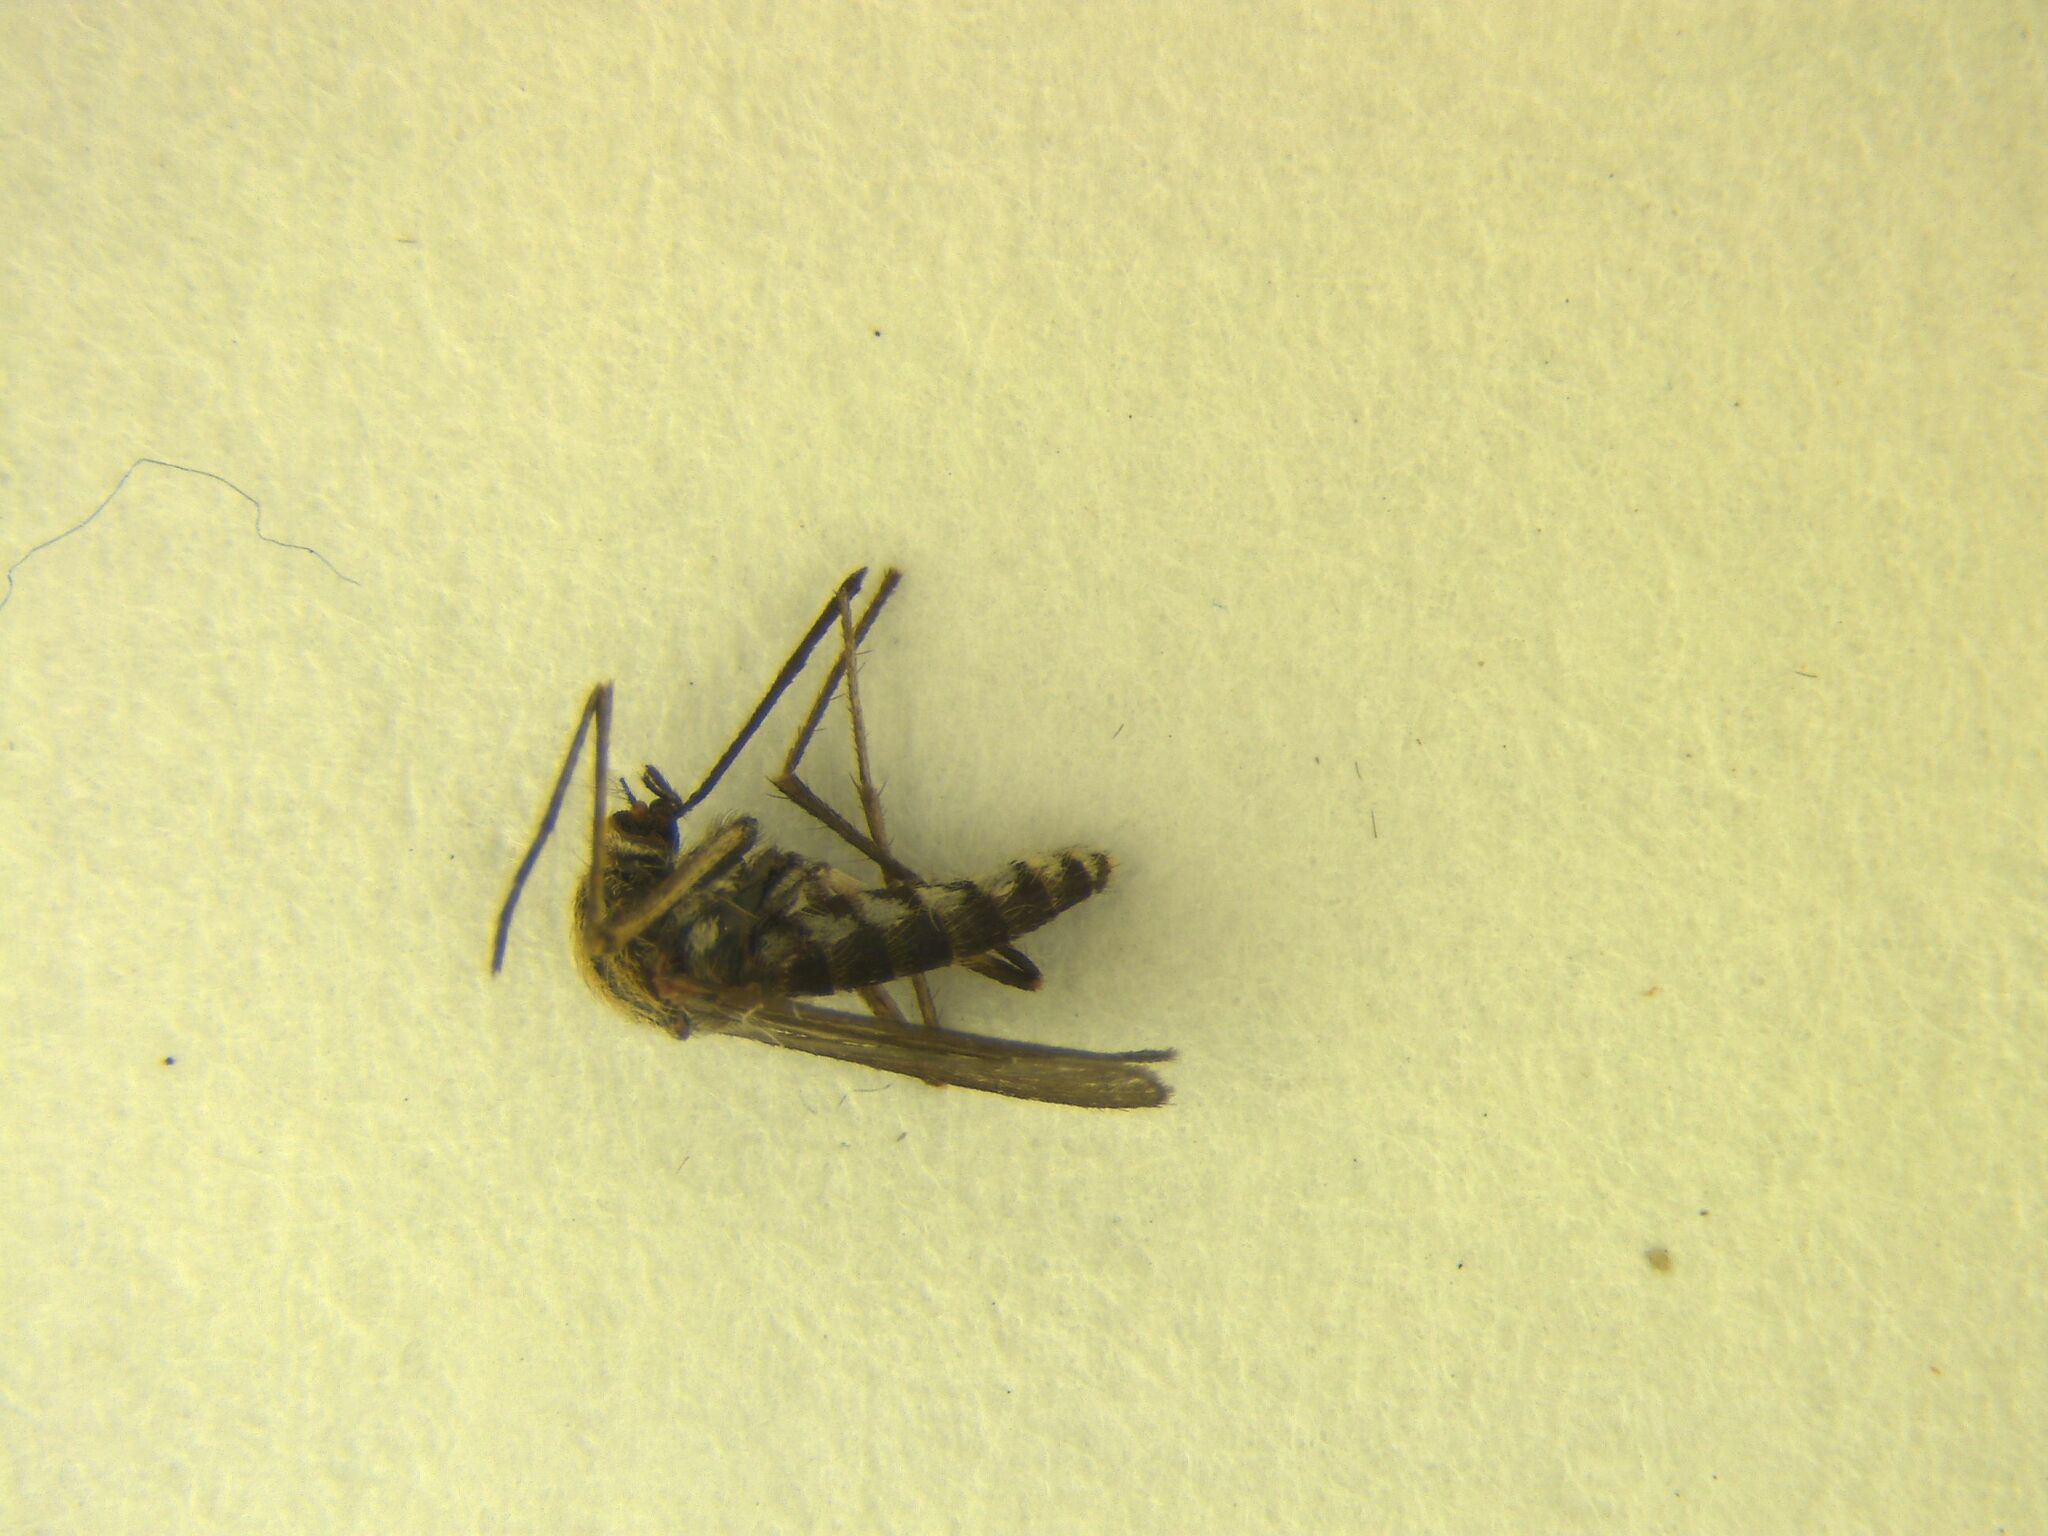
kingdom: Animalia
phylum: Arthropoda
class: Insecta
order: Diptera
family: Culicidae
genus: Coquillettidia
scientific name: Coquillettidia iracunda
